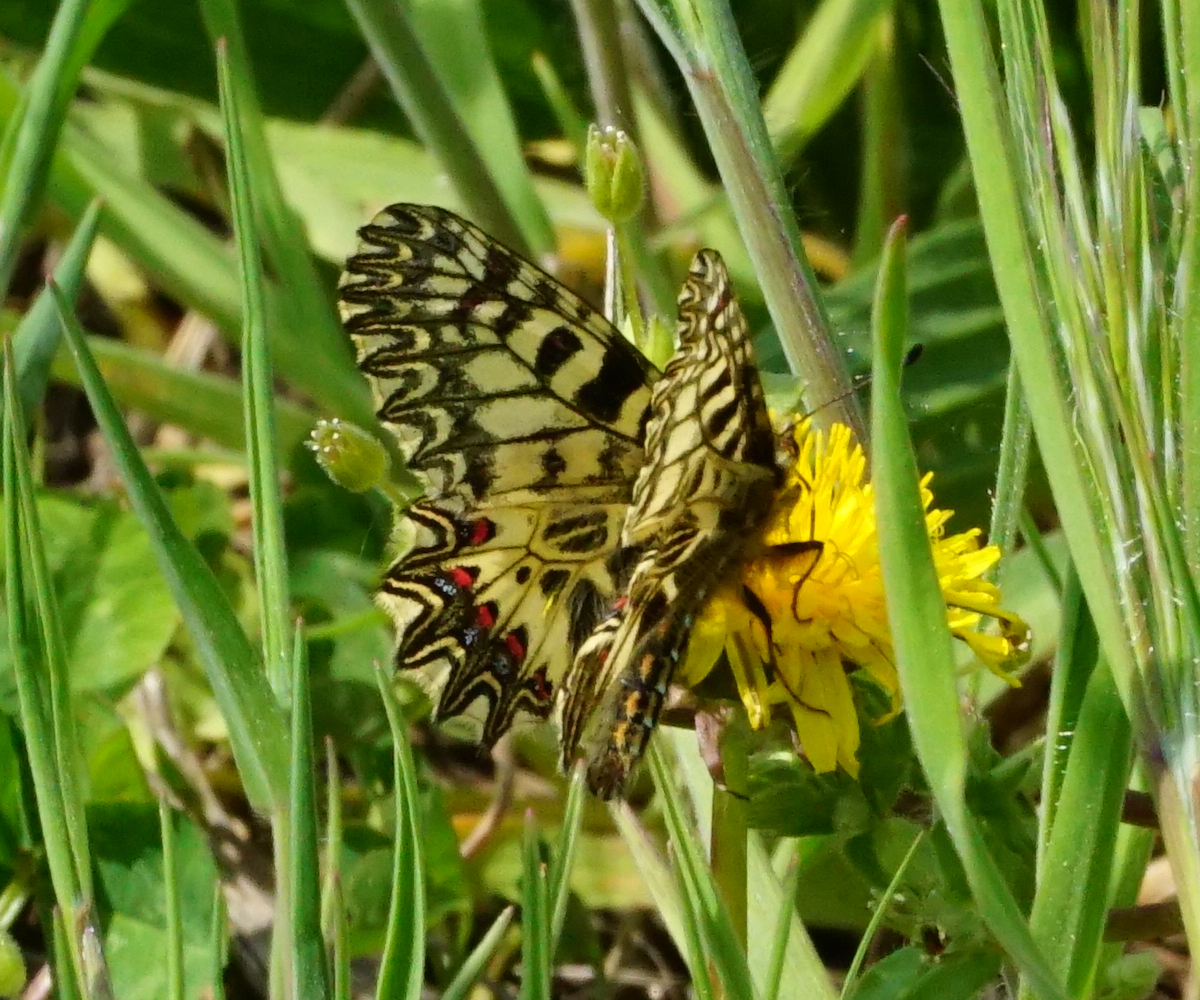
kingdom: Animalia
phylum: Arthropoda
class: Insecta
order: Lepidoptera
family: Papilionidae
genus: Zerynthia
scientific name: Zerynthia polyxena
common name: Southern festoon
